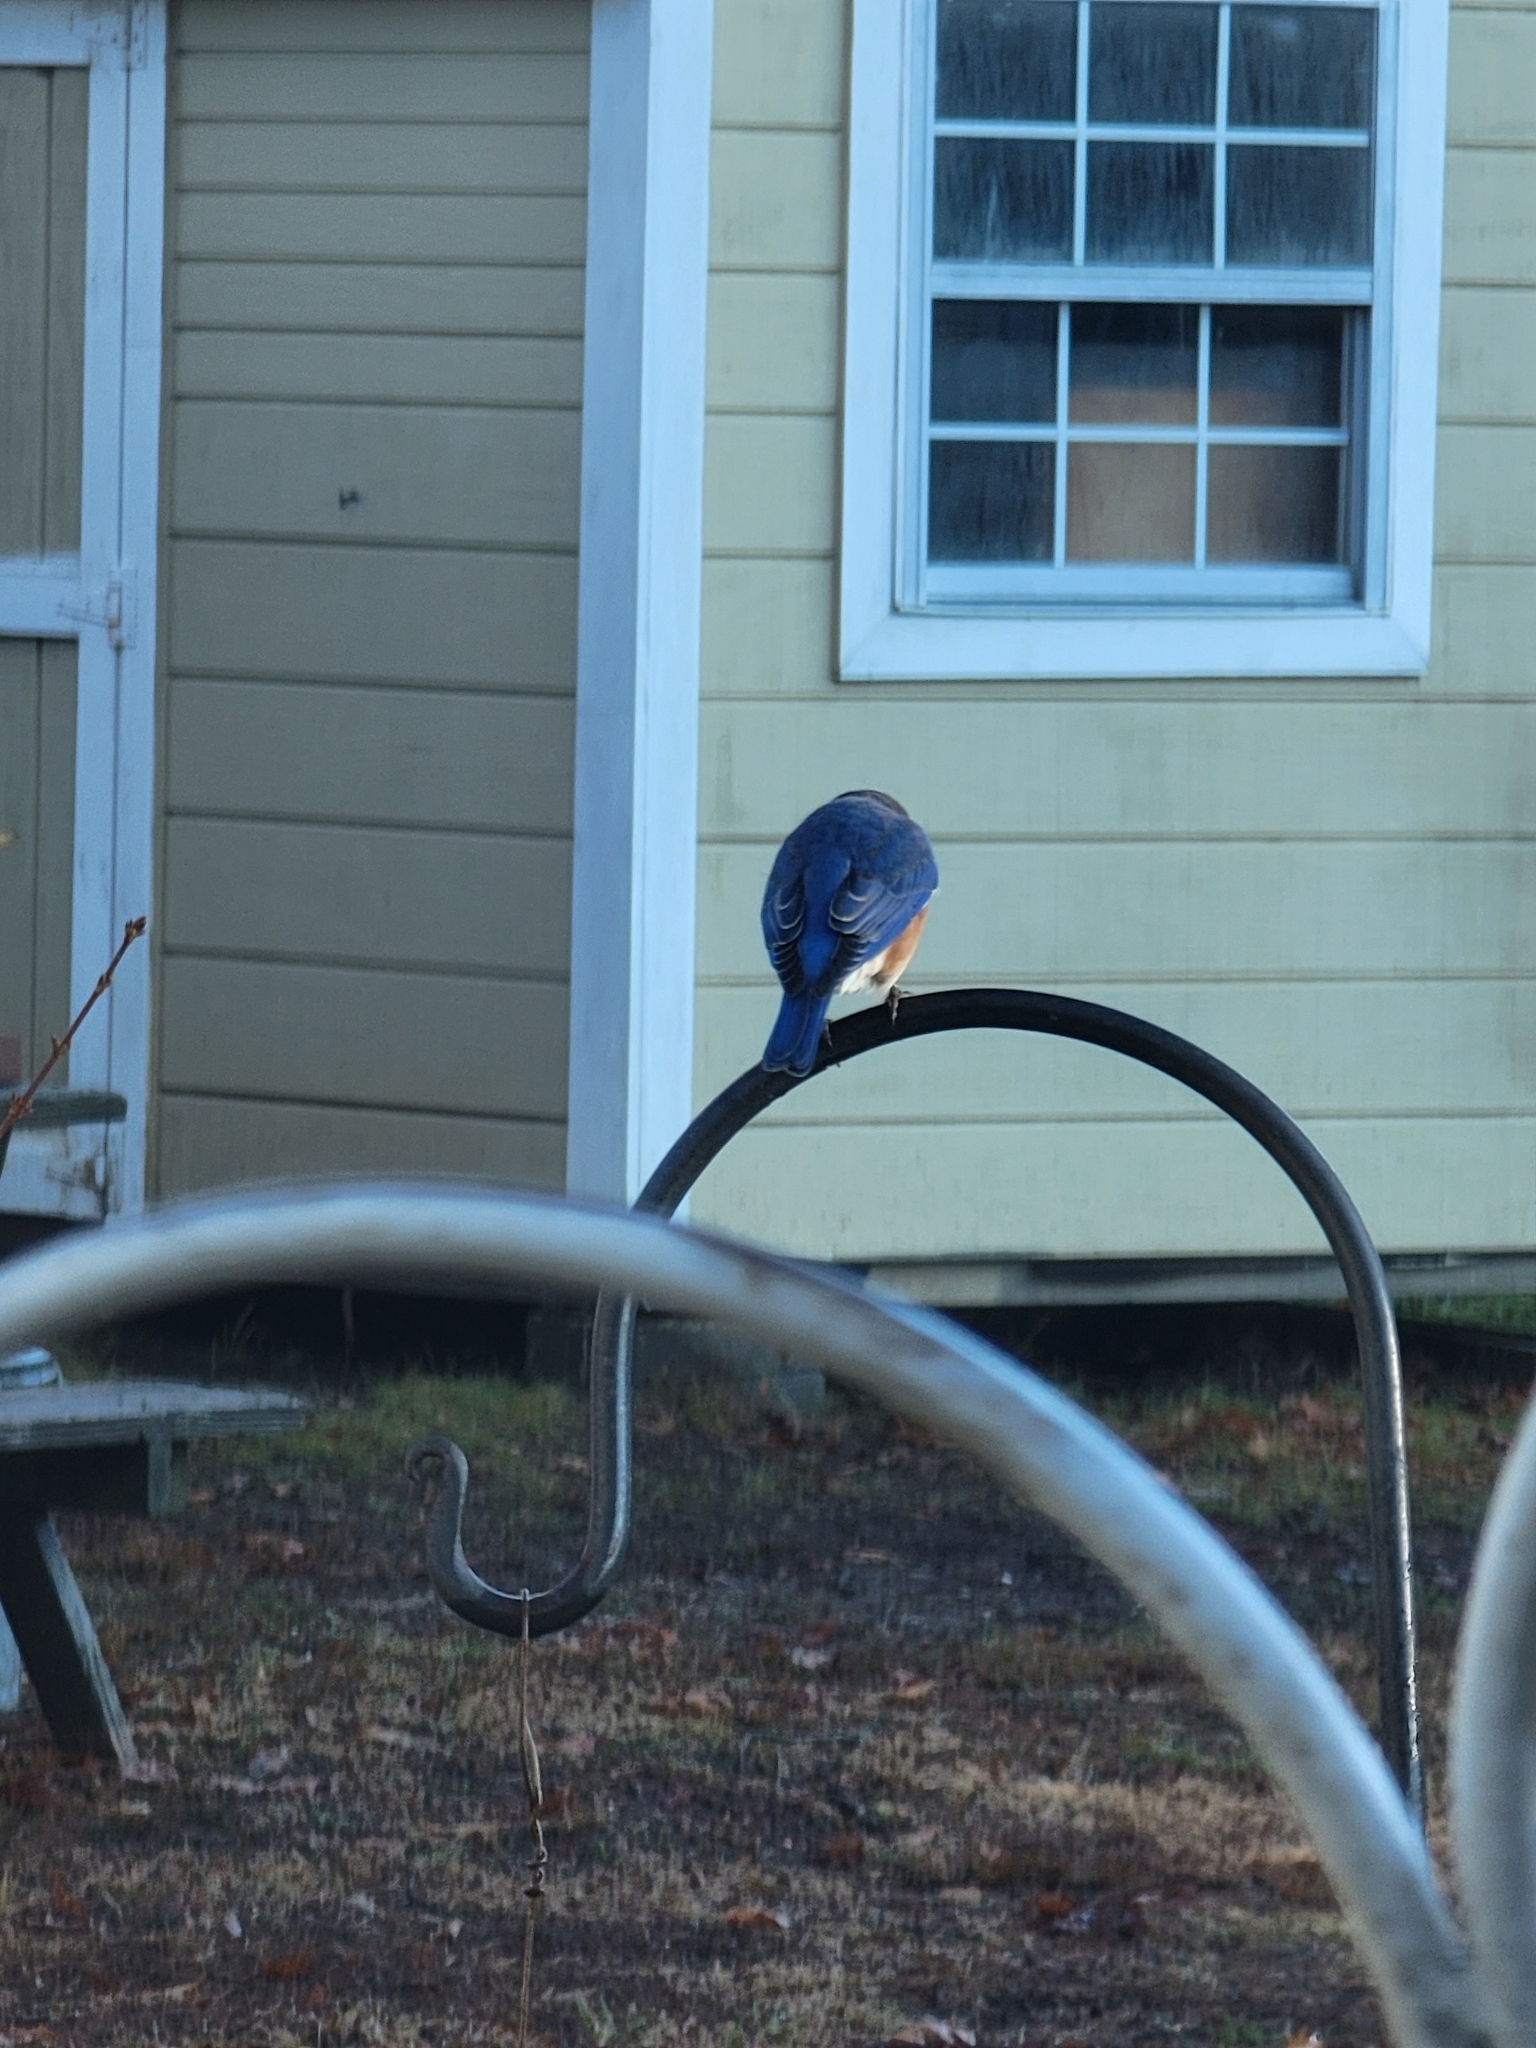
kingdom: Animalia
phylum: Chordata
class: Aves
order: Passeriformes
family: Turdidae
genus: Sialia
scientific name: Sialia sialis
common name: Eastern bluebird
